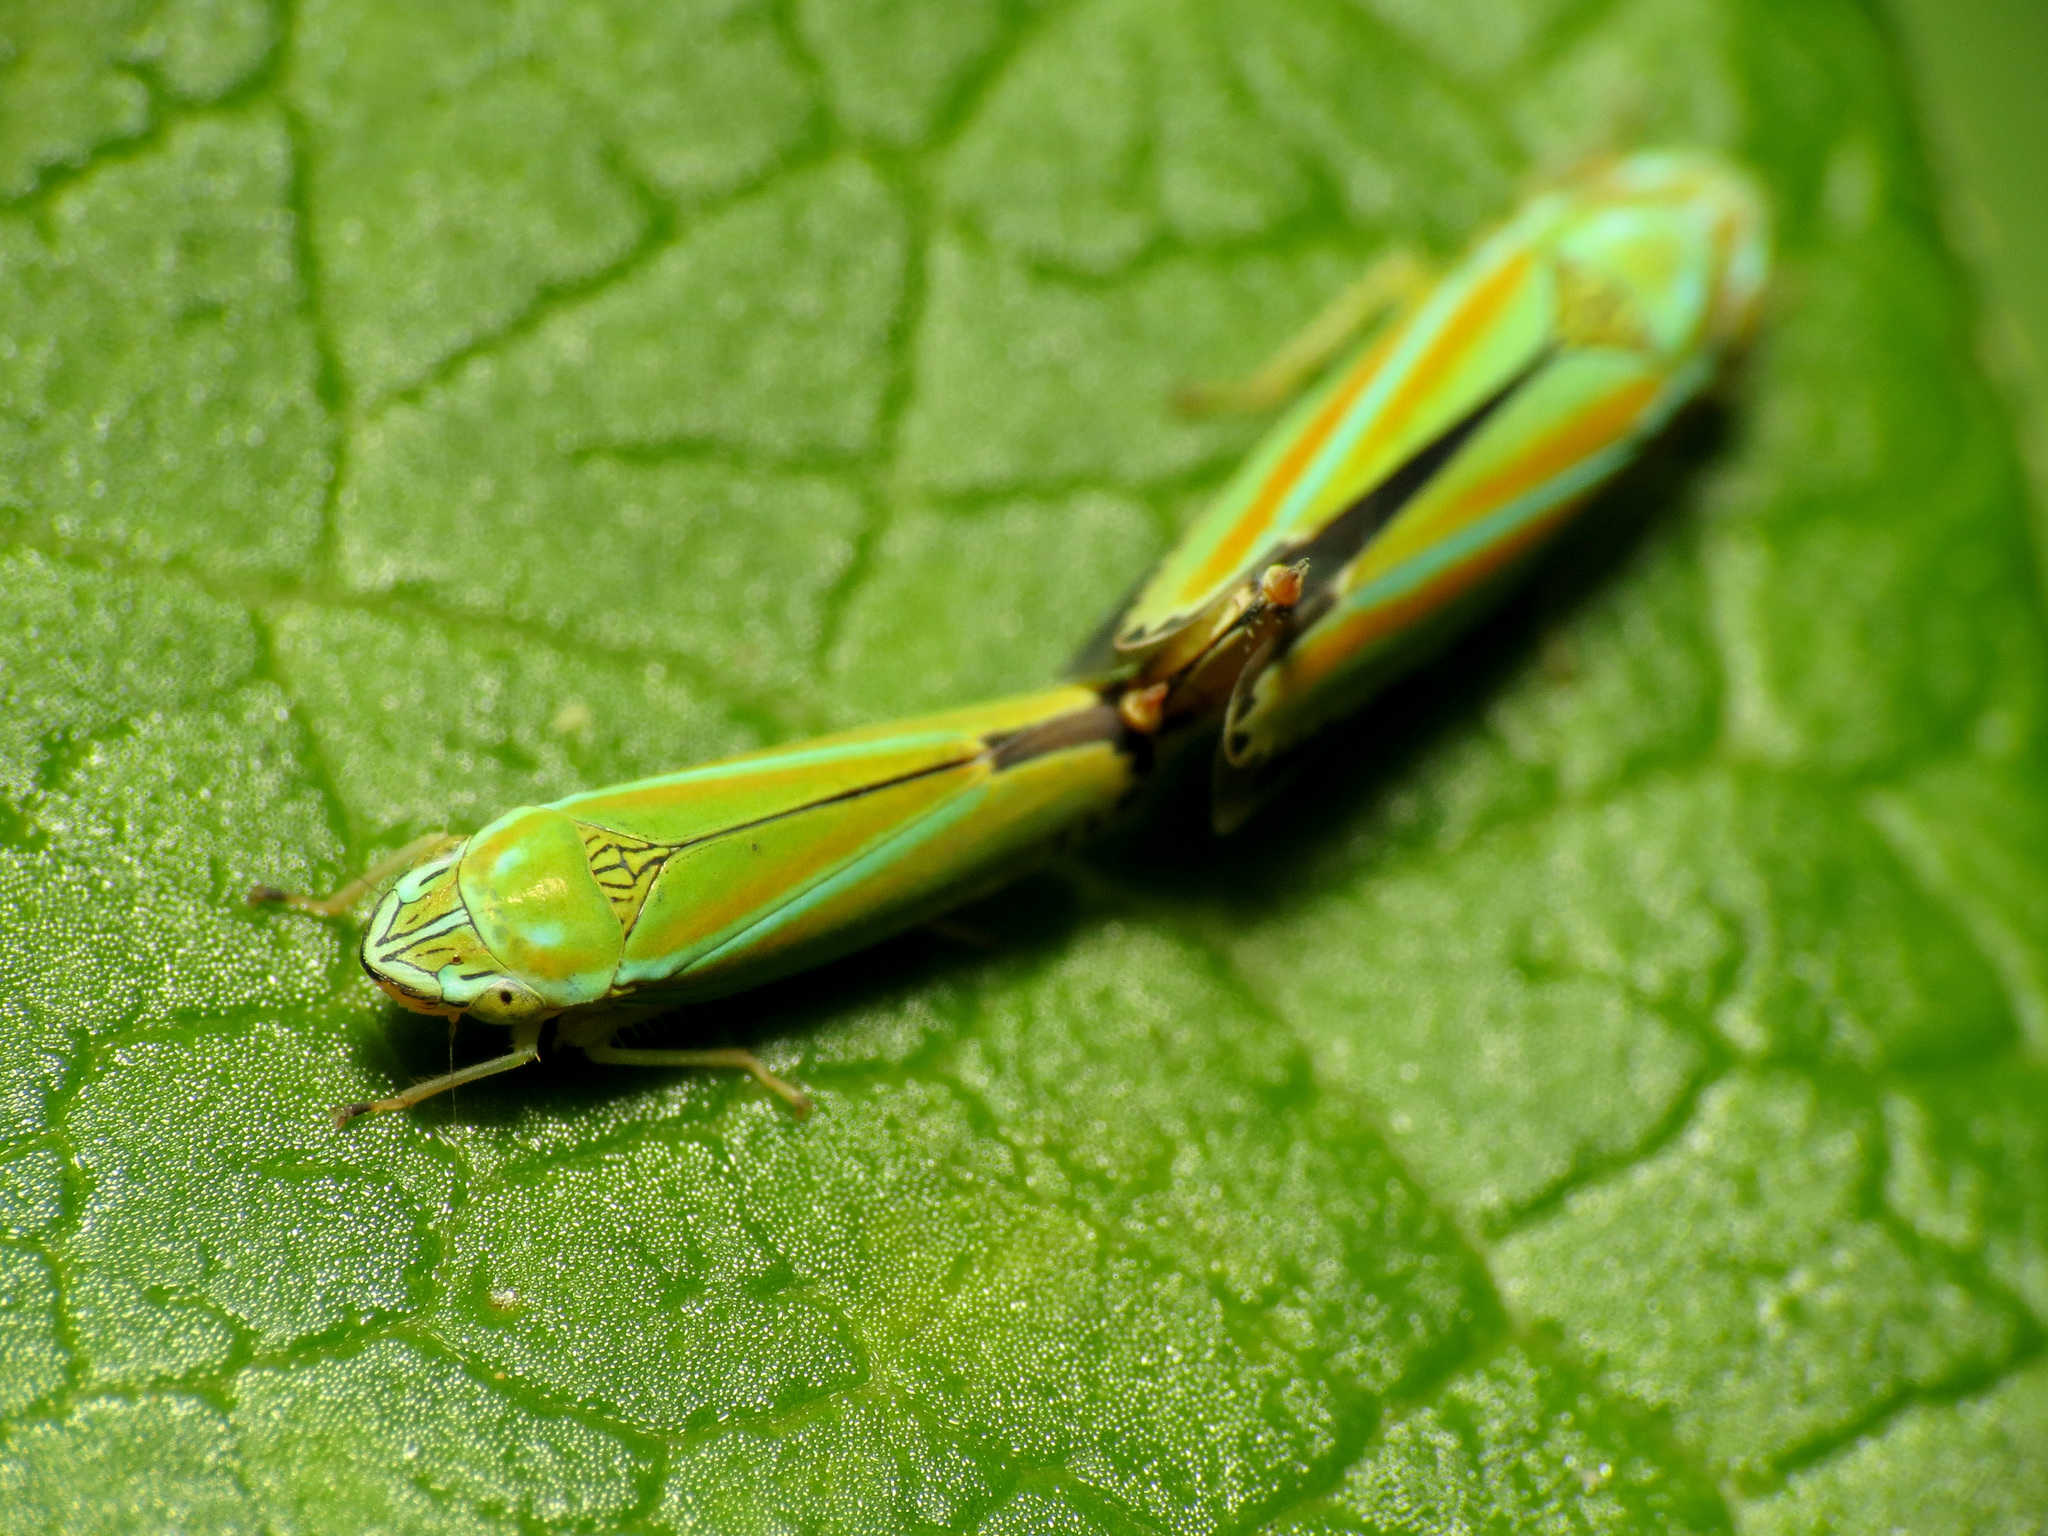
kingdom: Animalia
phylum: Arthropoda
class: Insecta
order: Hemiptera
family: Cicadellidae
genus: Graphocephala
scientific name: Graphocephala versuta
